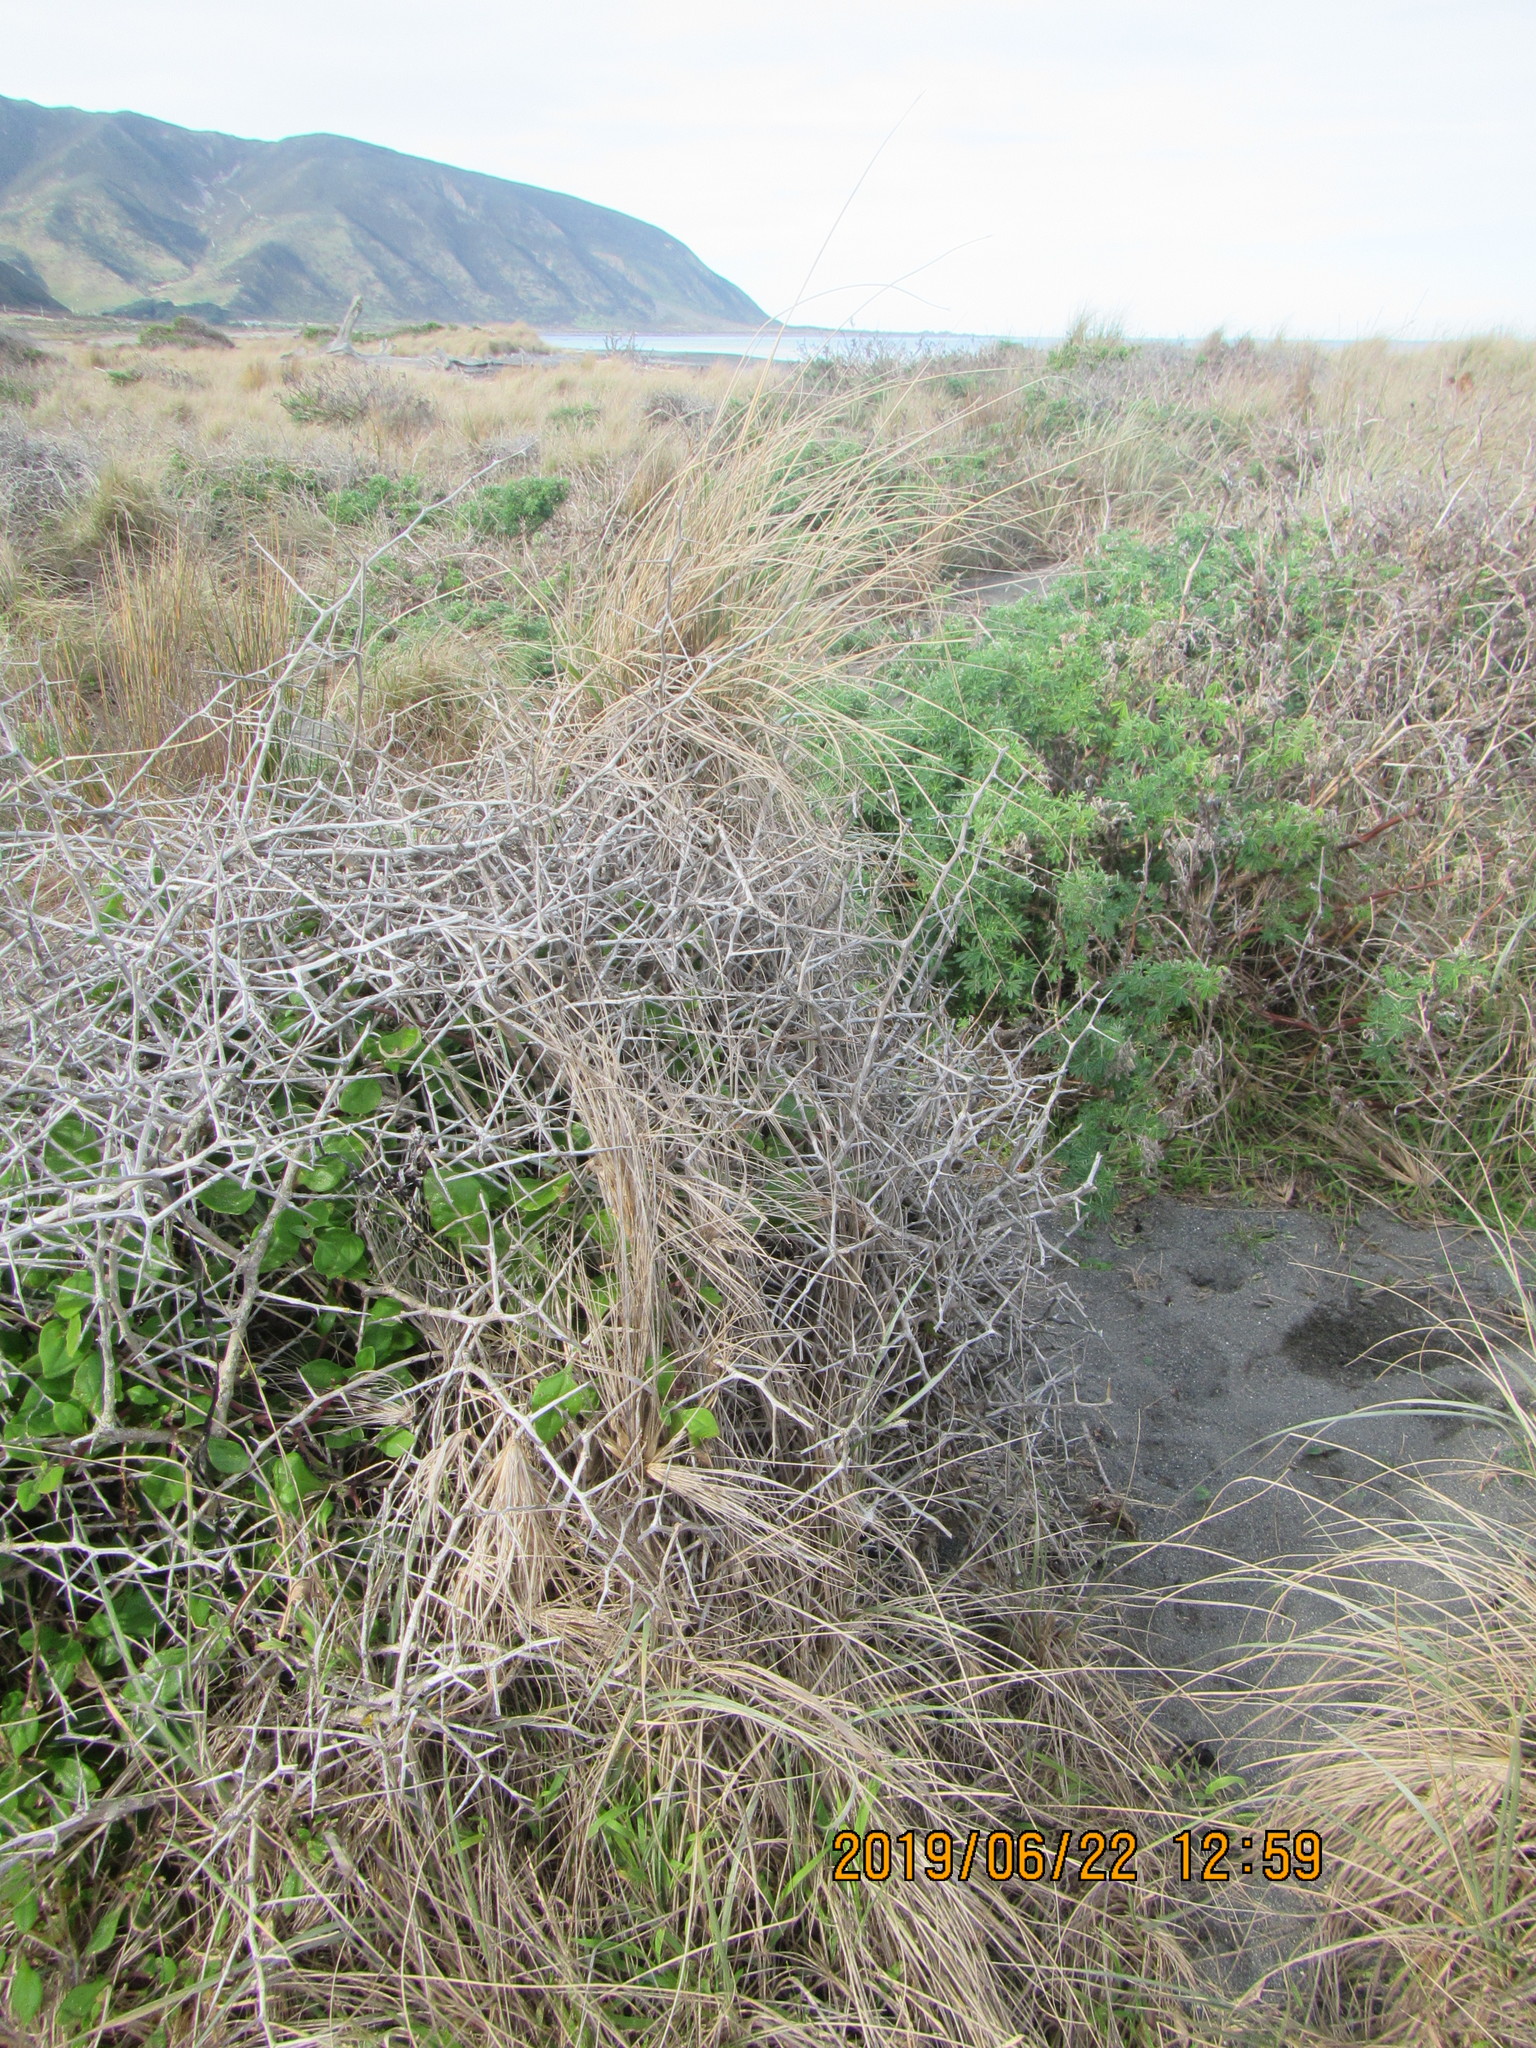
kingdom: Plantae
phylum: Tracheophyta
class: Liliopsida
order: Poales
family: Poaceae
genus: Spinifex
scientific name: Spinifex sericeus
